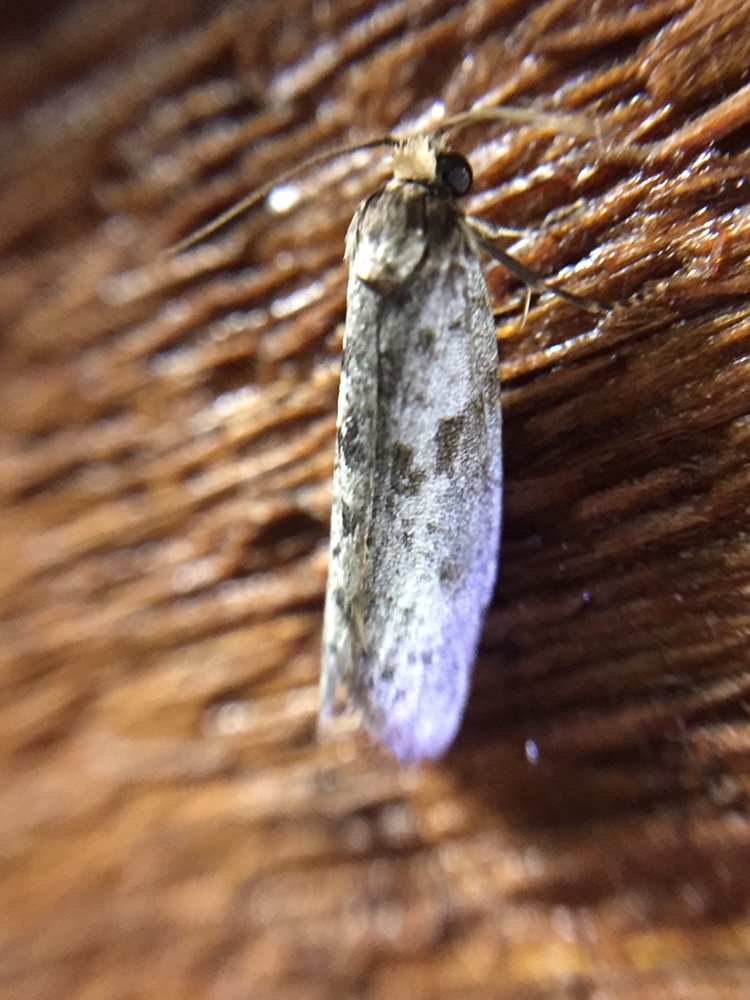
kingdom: Animalia
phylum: Arthropoda
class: Insecta
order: Lepidoptera
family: Psychidae
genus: Lepidoscia
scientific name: Lepidoscia protorna
